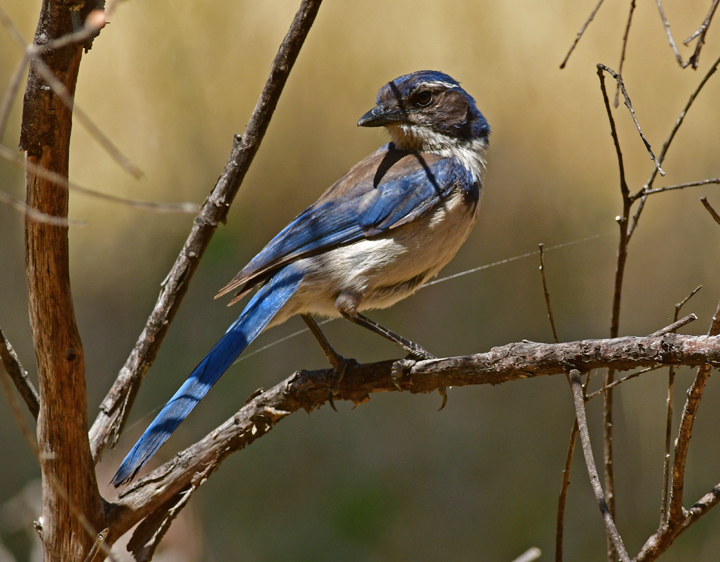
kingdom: Animalia
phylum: Chordata
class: Aves
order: Passeriformes
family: Corvidae
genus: Aphelocoma
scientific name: Aphelocoma californica
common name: California scrub-jay
